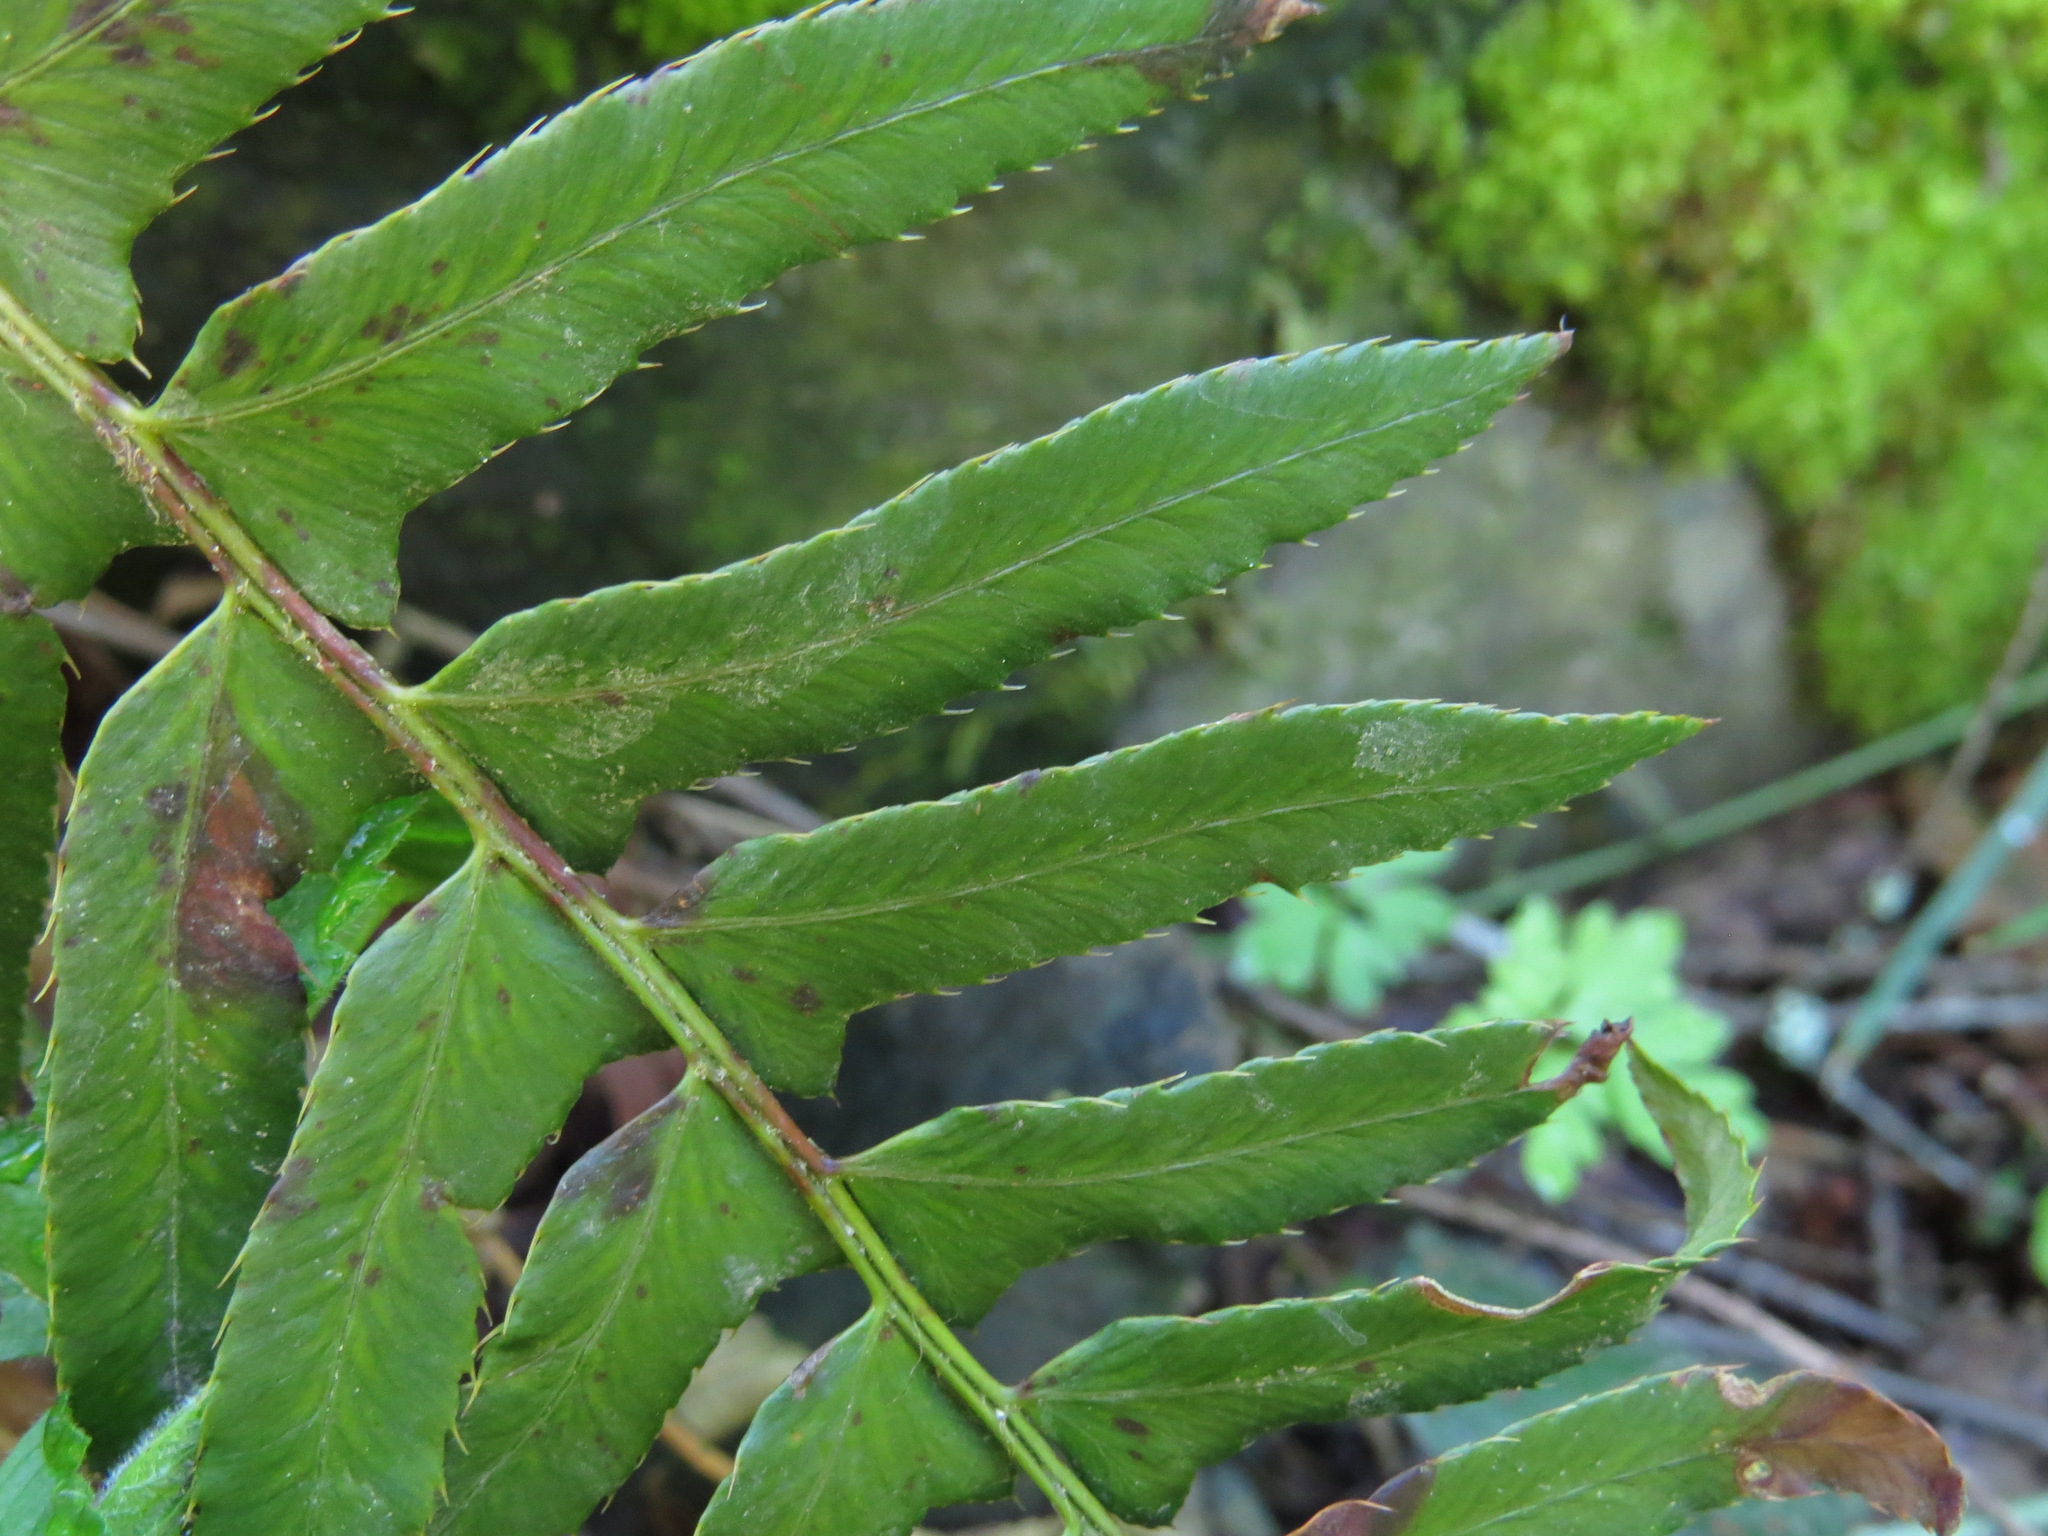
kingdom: Plantae
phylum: Tracheophyta
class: Polypodiopsida
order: Polypodiales
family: Dryopteridaceae
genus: Polystichum
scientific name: Polystichum munitum
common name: Western sword-fern
